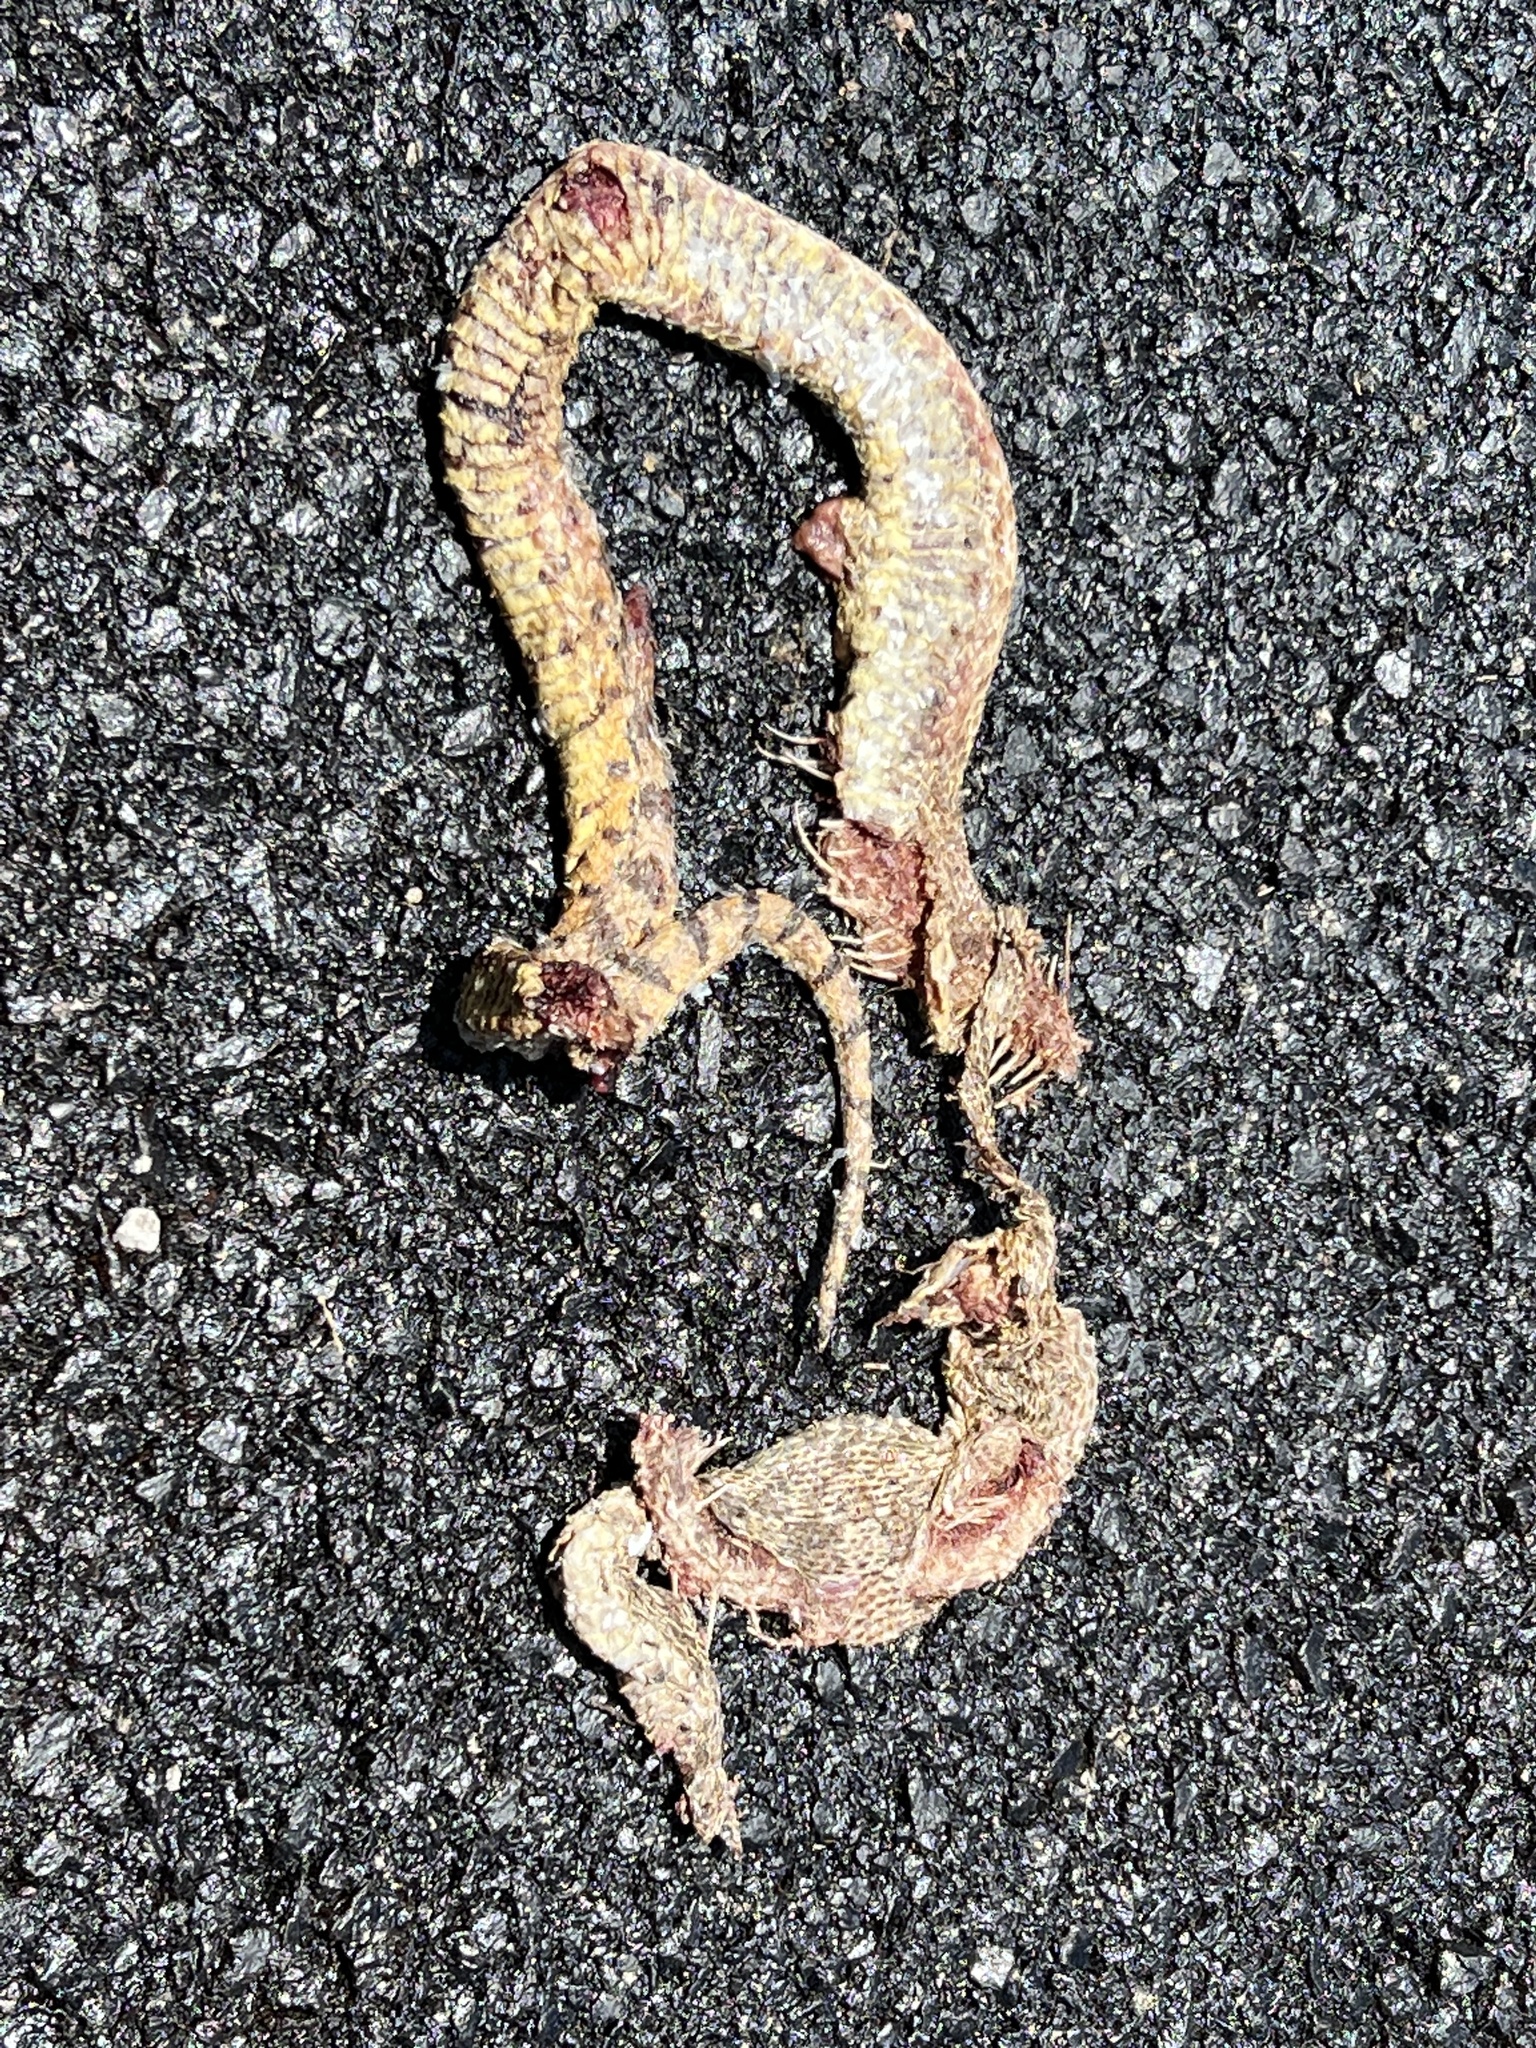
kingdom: Animalia
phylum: Chordata
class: Squamata
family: Colubridae
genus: Pituophis
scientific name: Pituophis catenifer
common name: Gopher snake
